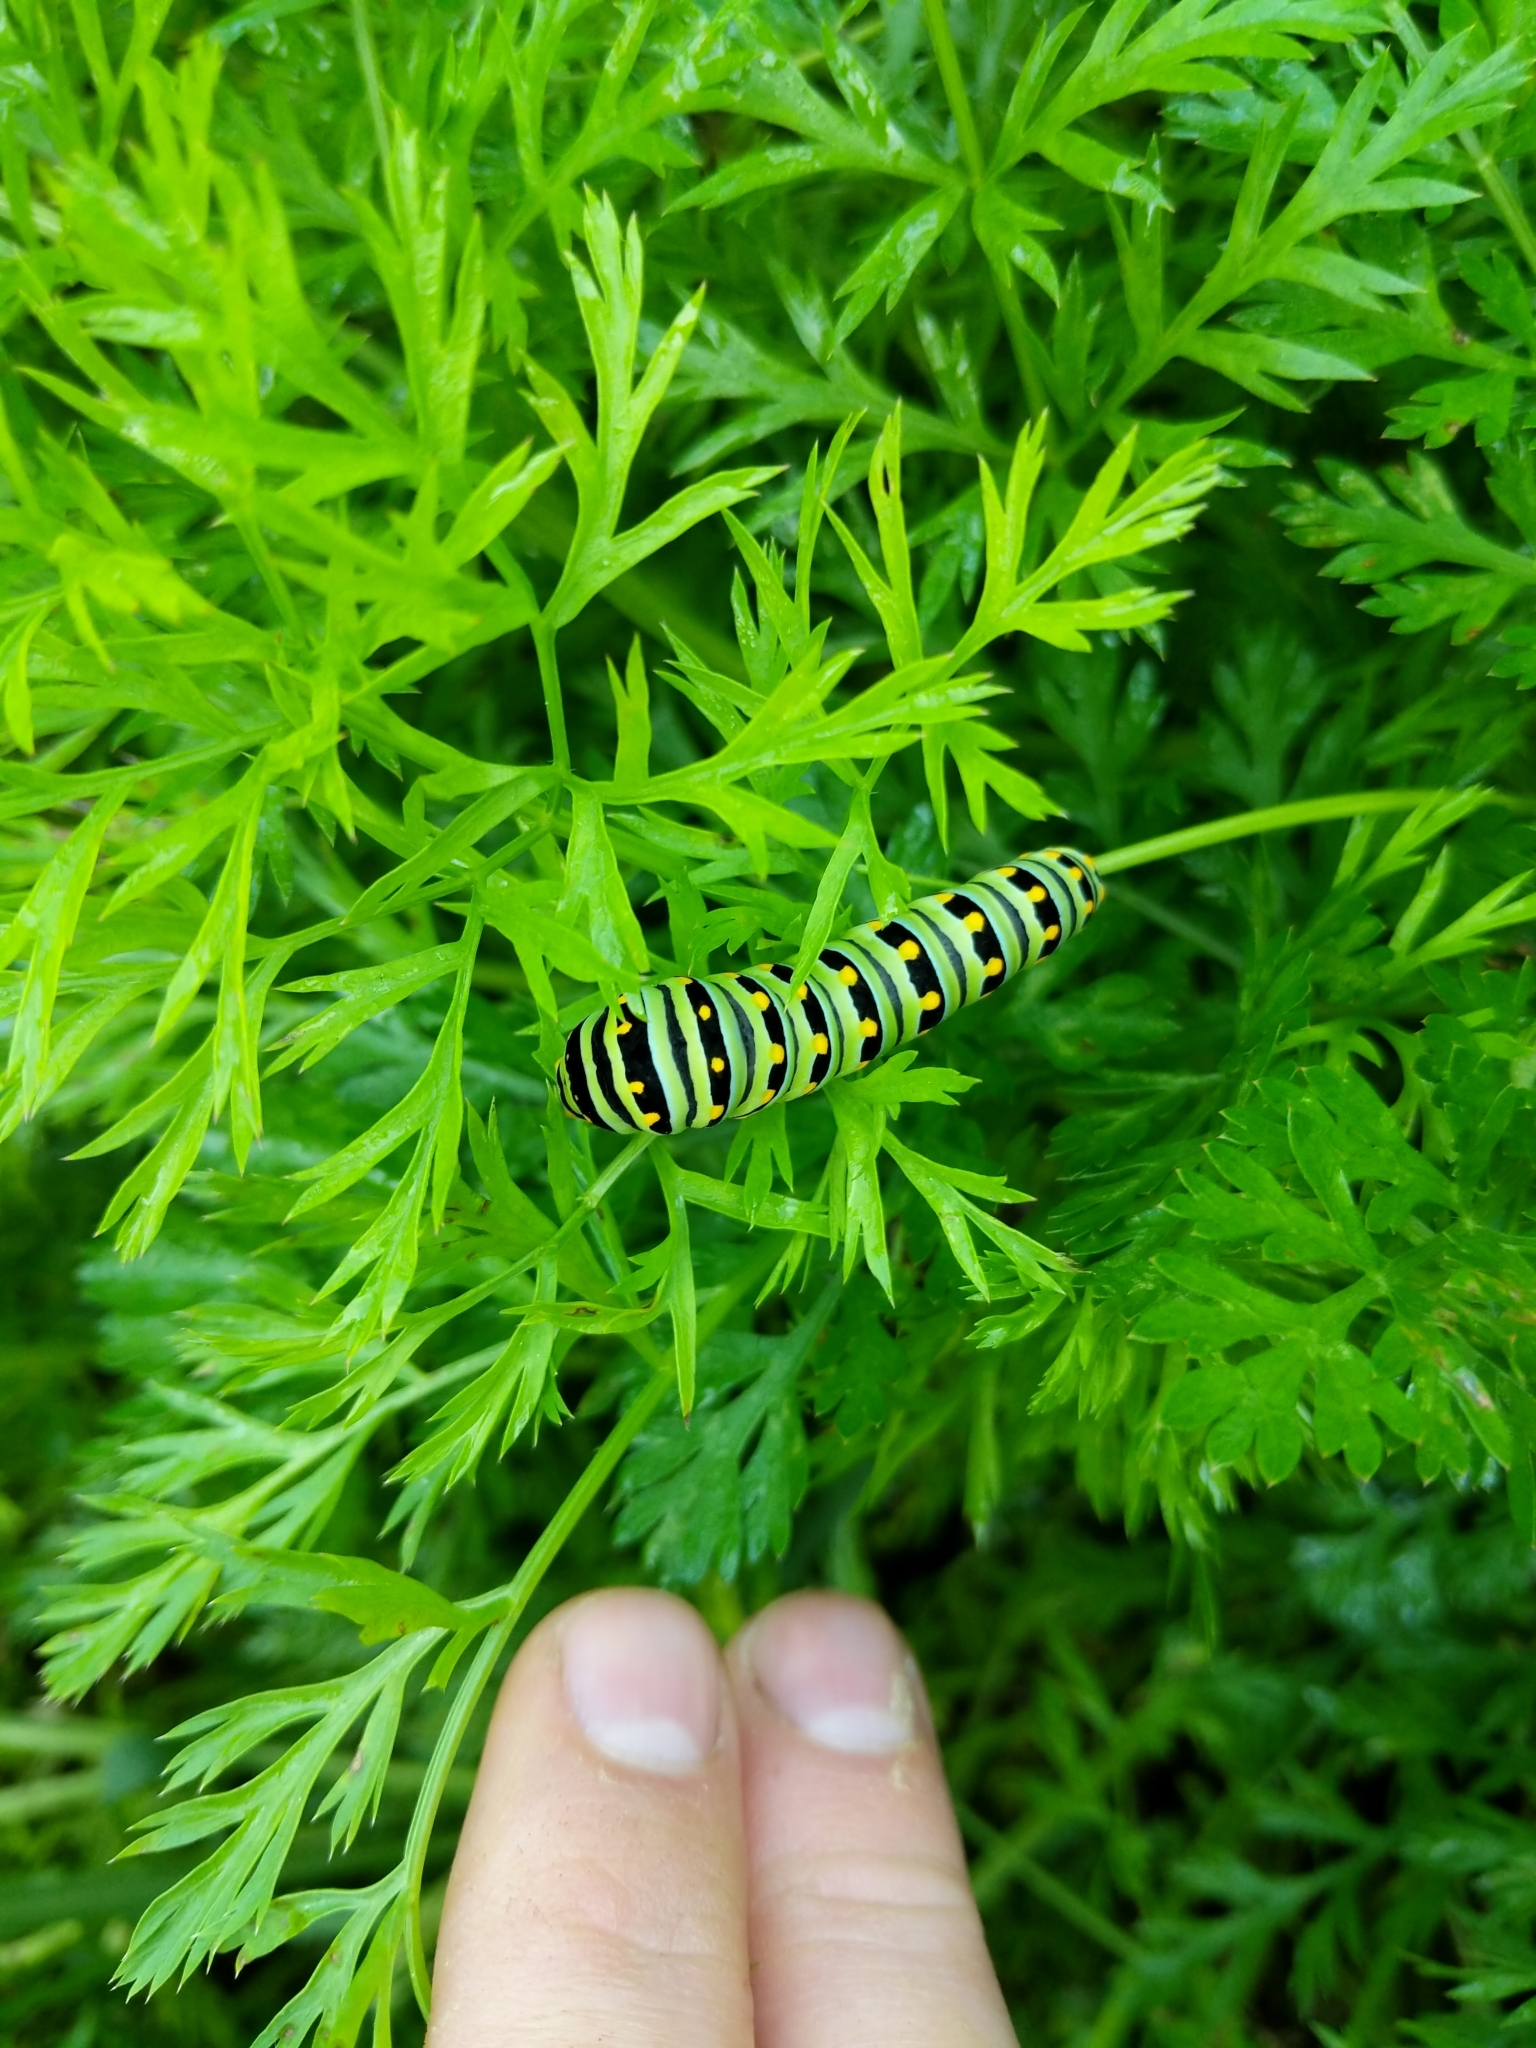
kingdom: Animalia
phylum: Arthropoda
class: Insecta
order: Lepidoptera
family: Papilionidae
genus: Papilio
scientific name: Papilio polyxenes
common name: Black swallowtail
